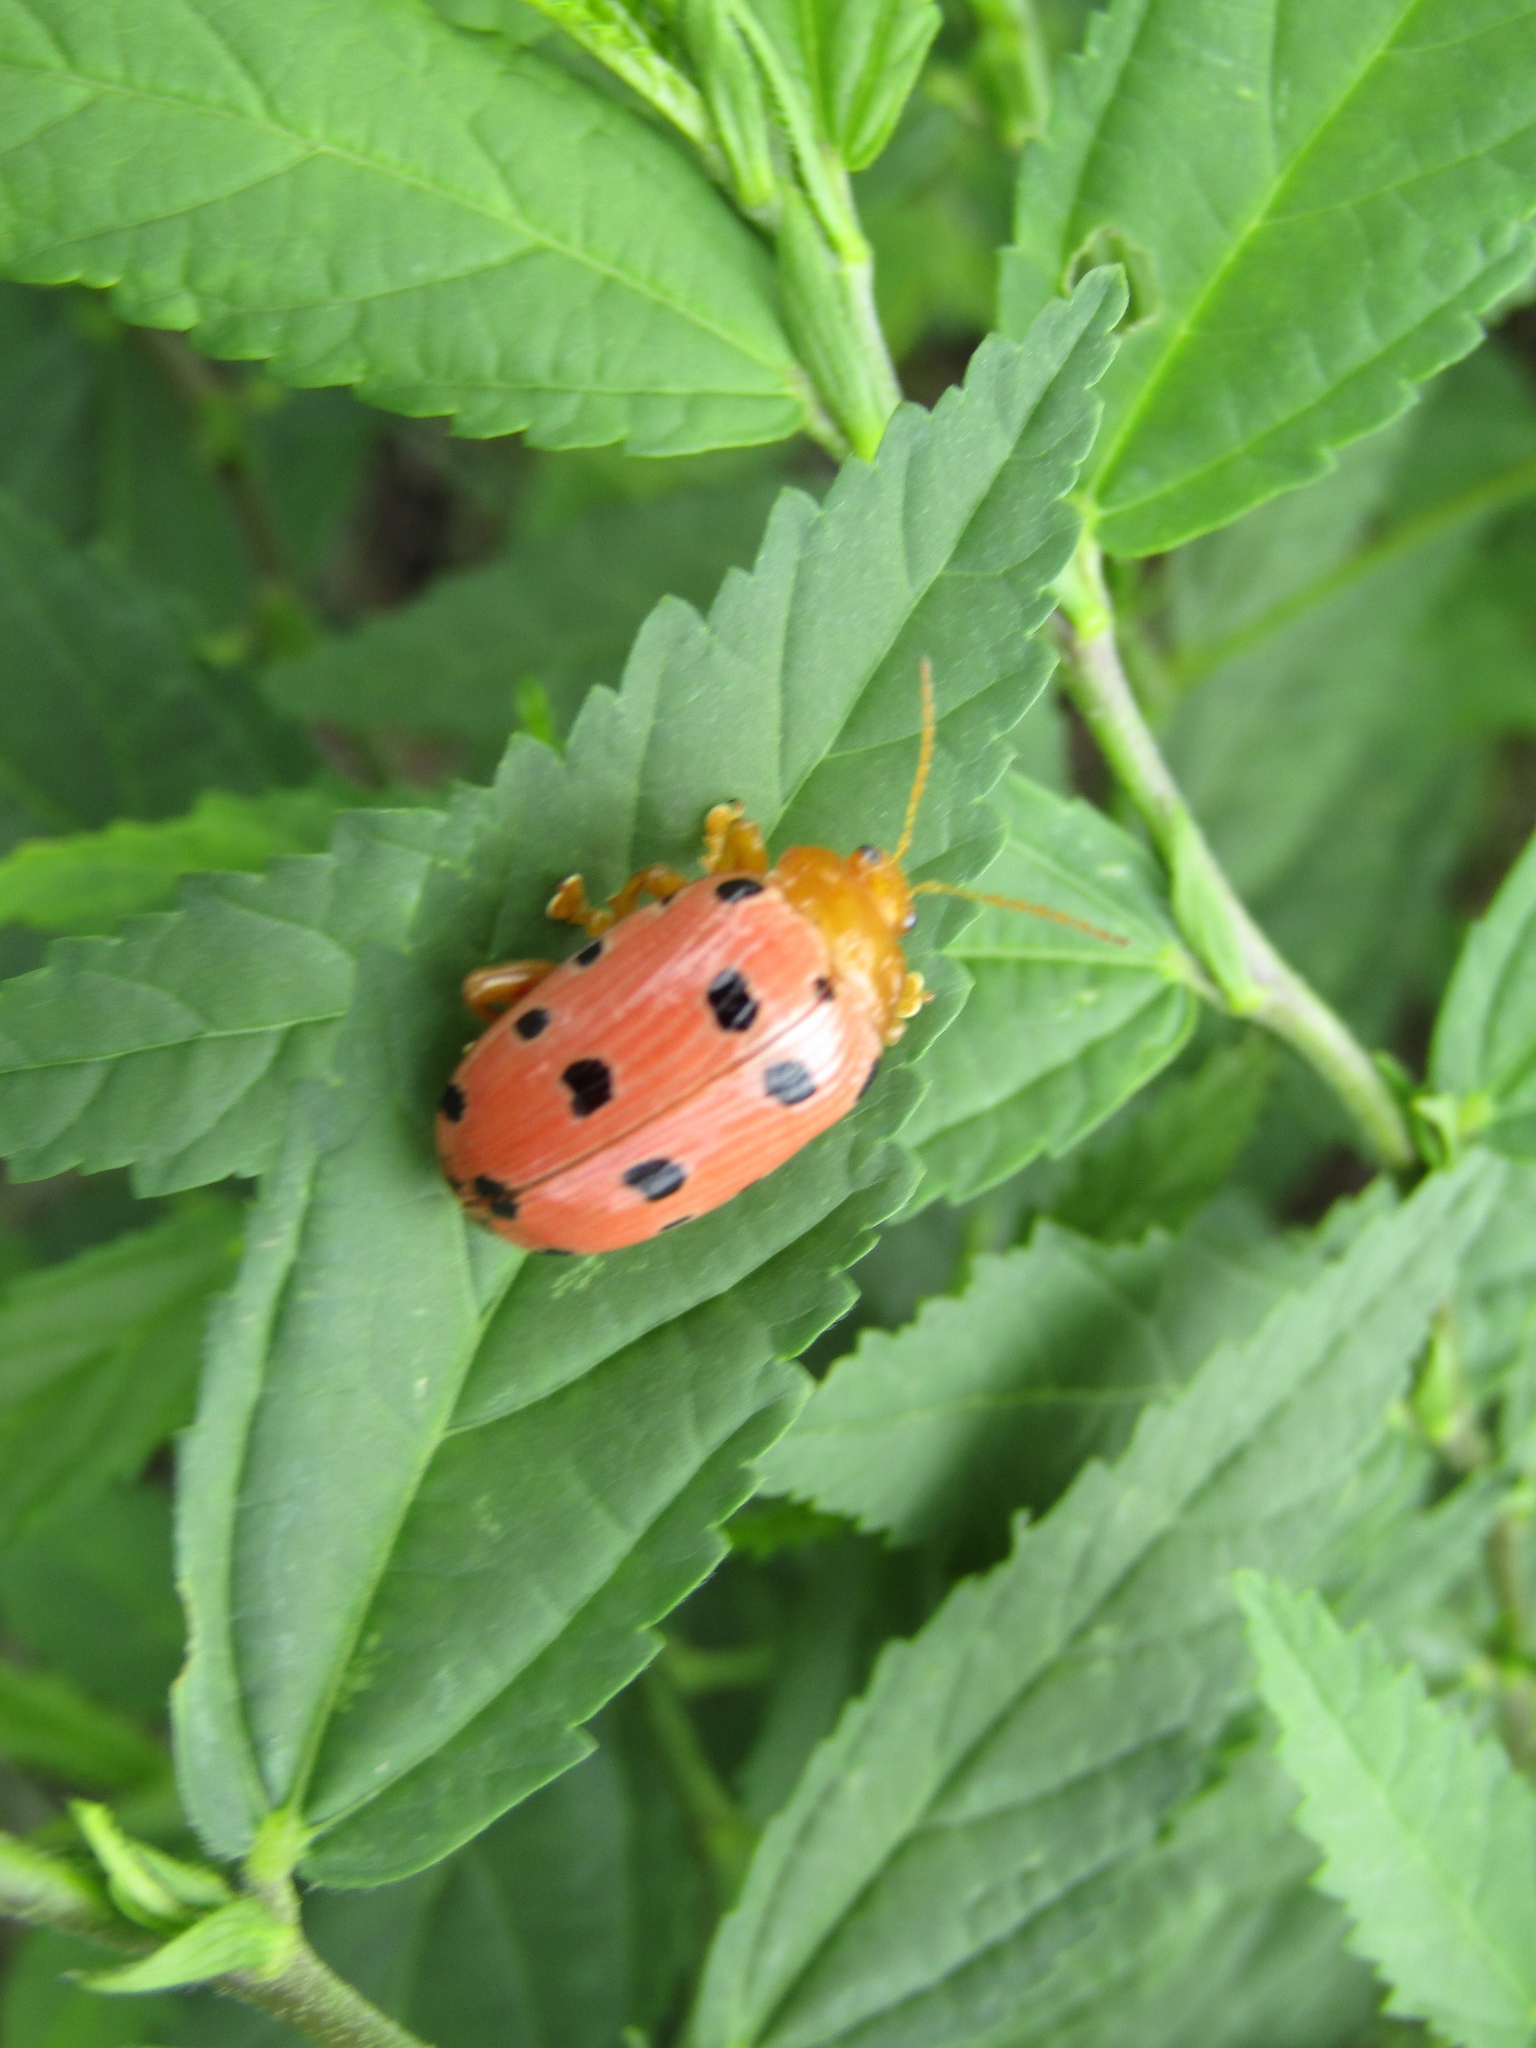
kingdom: Animalia
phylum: Arthropoda
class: Insecta
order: Coleoptera
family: Chrysomelidae
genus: Podontia
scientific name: Podontia
